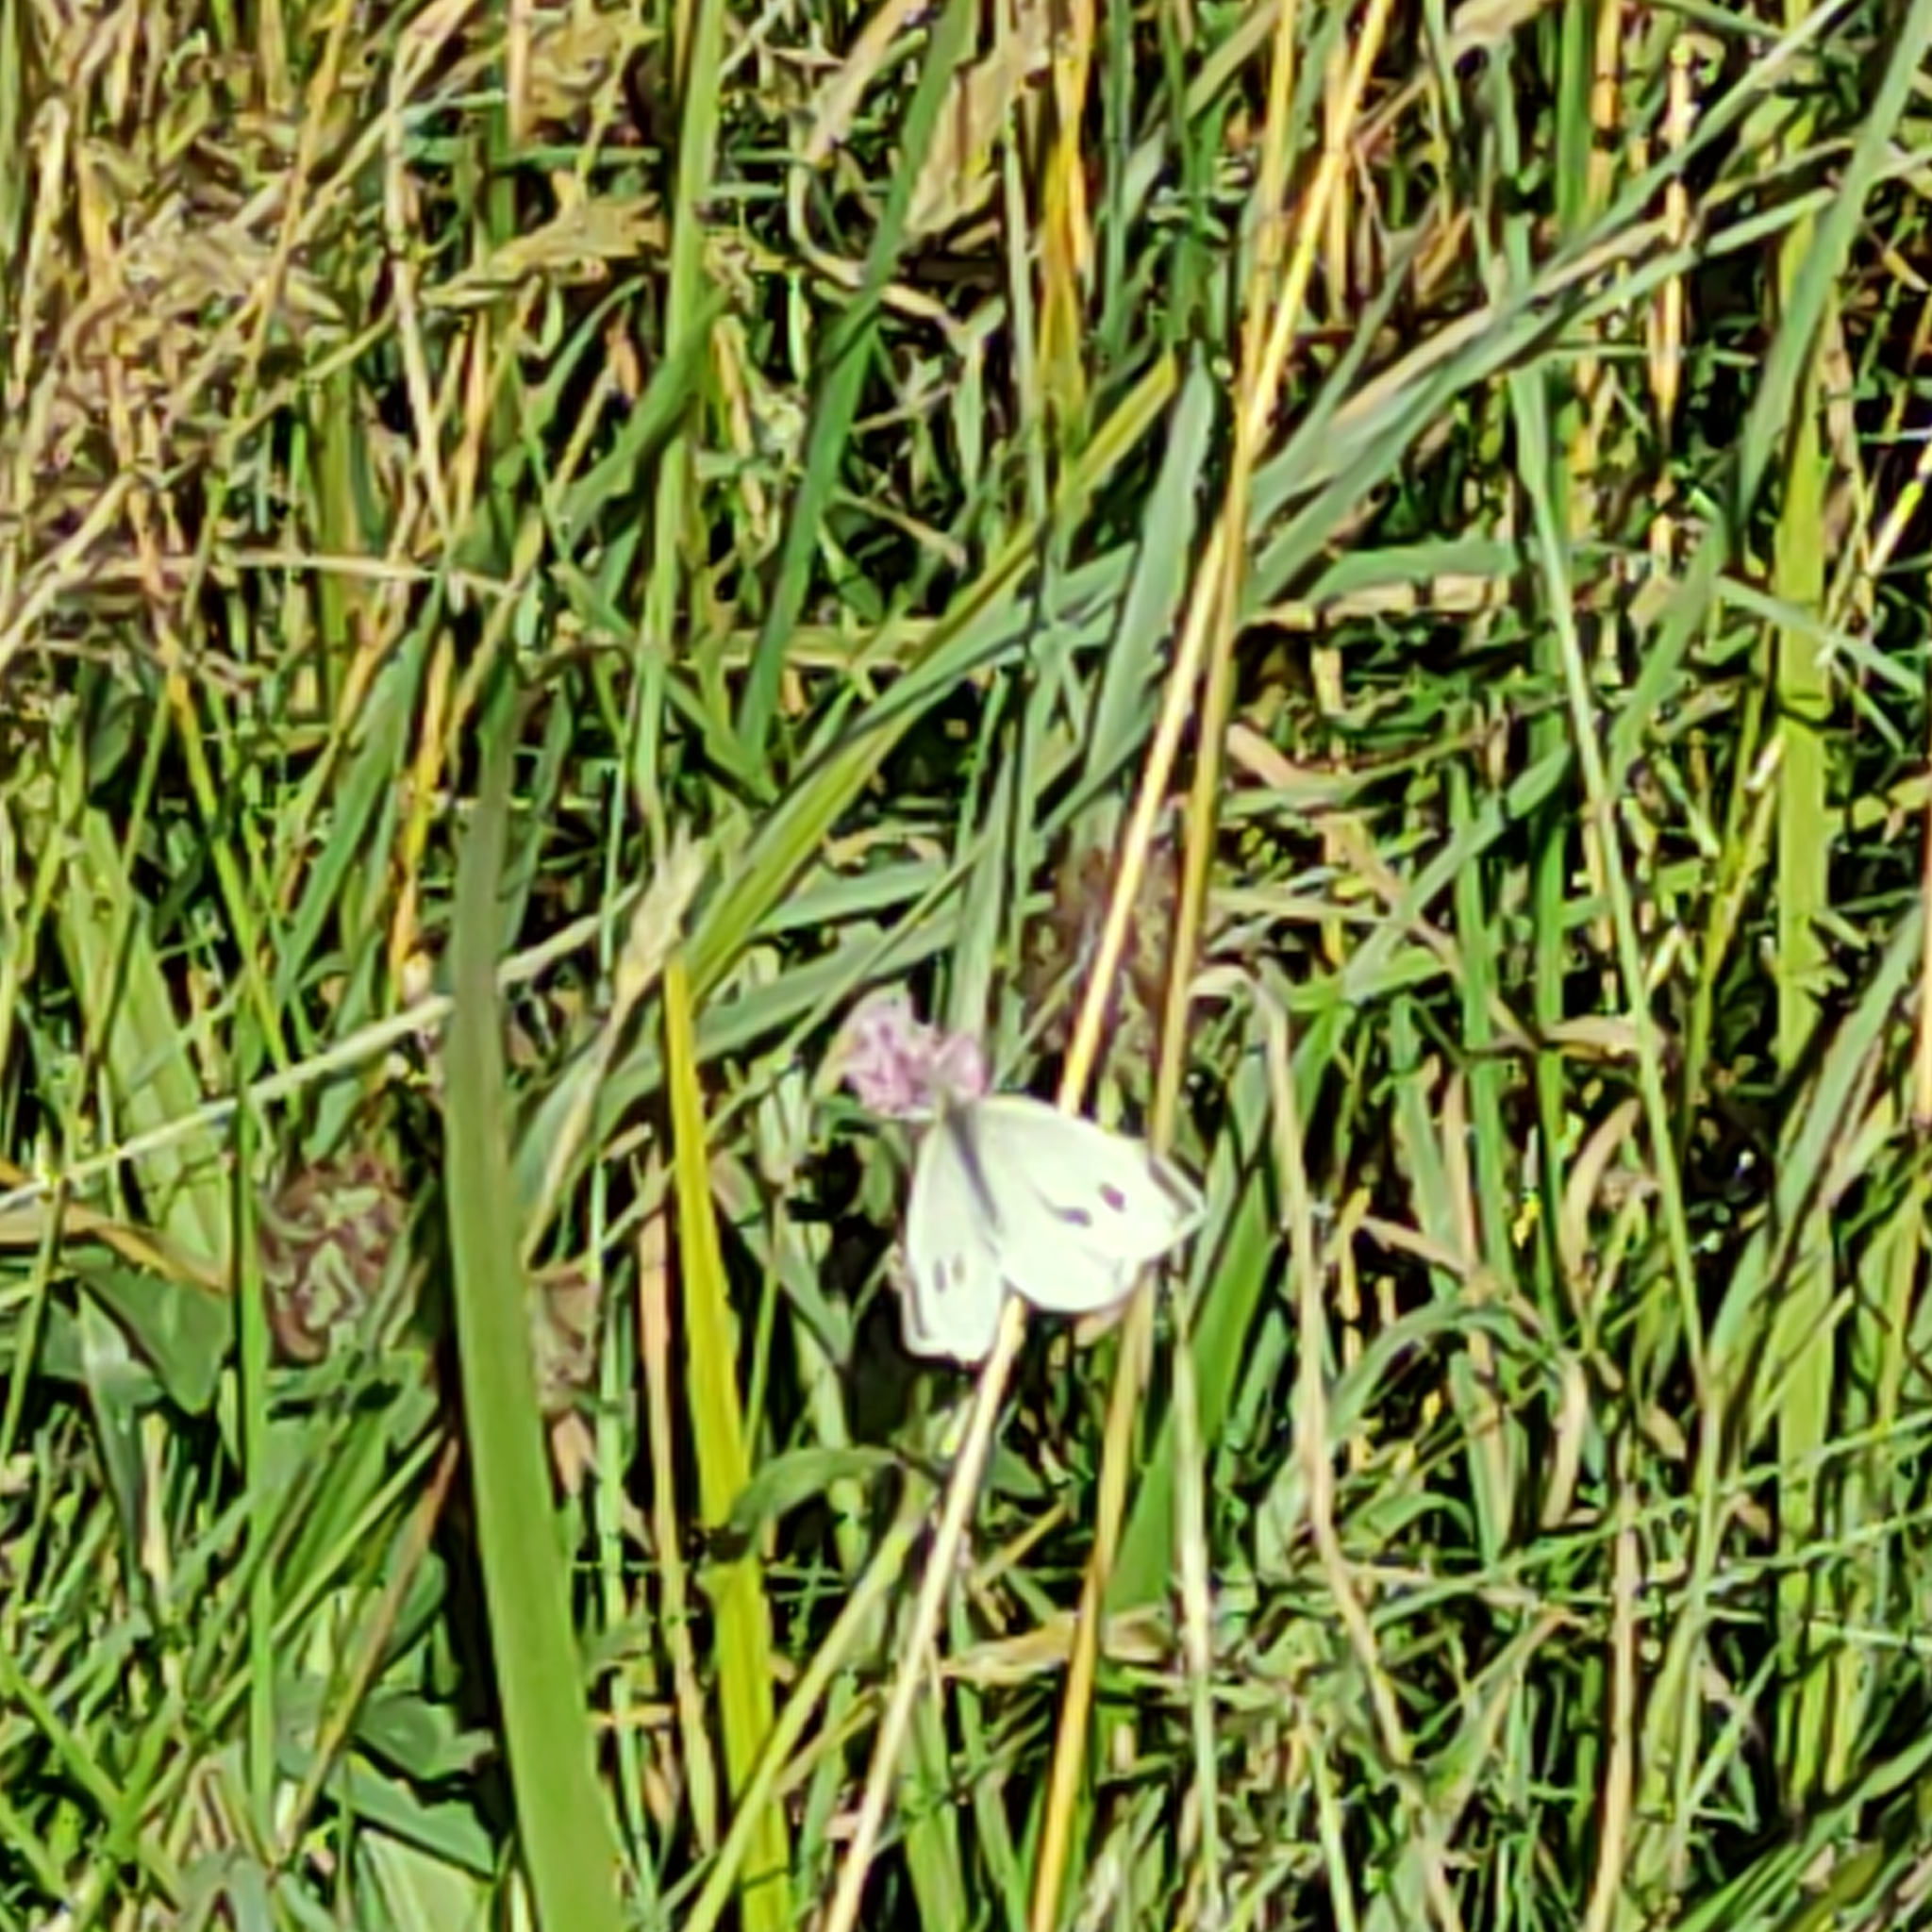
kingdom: Animalia
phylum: Arthropoda
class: Insecta
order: Lepidoptera
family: Pieridae
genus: Pieris
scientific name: Pieris rapae
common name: Small white
